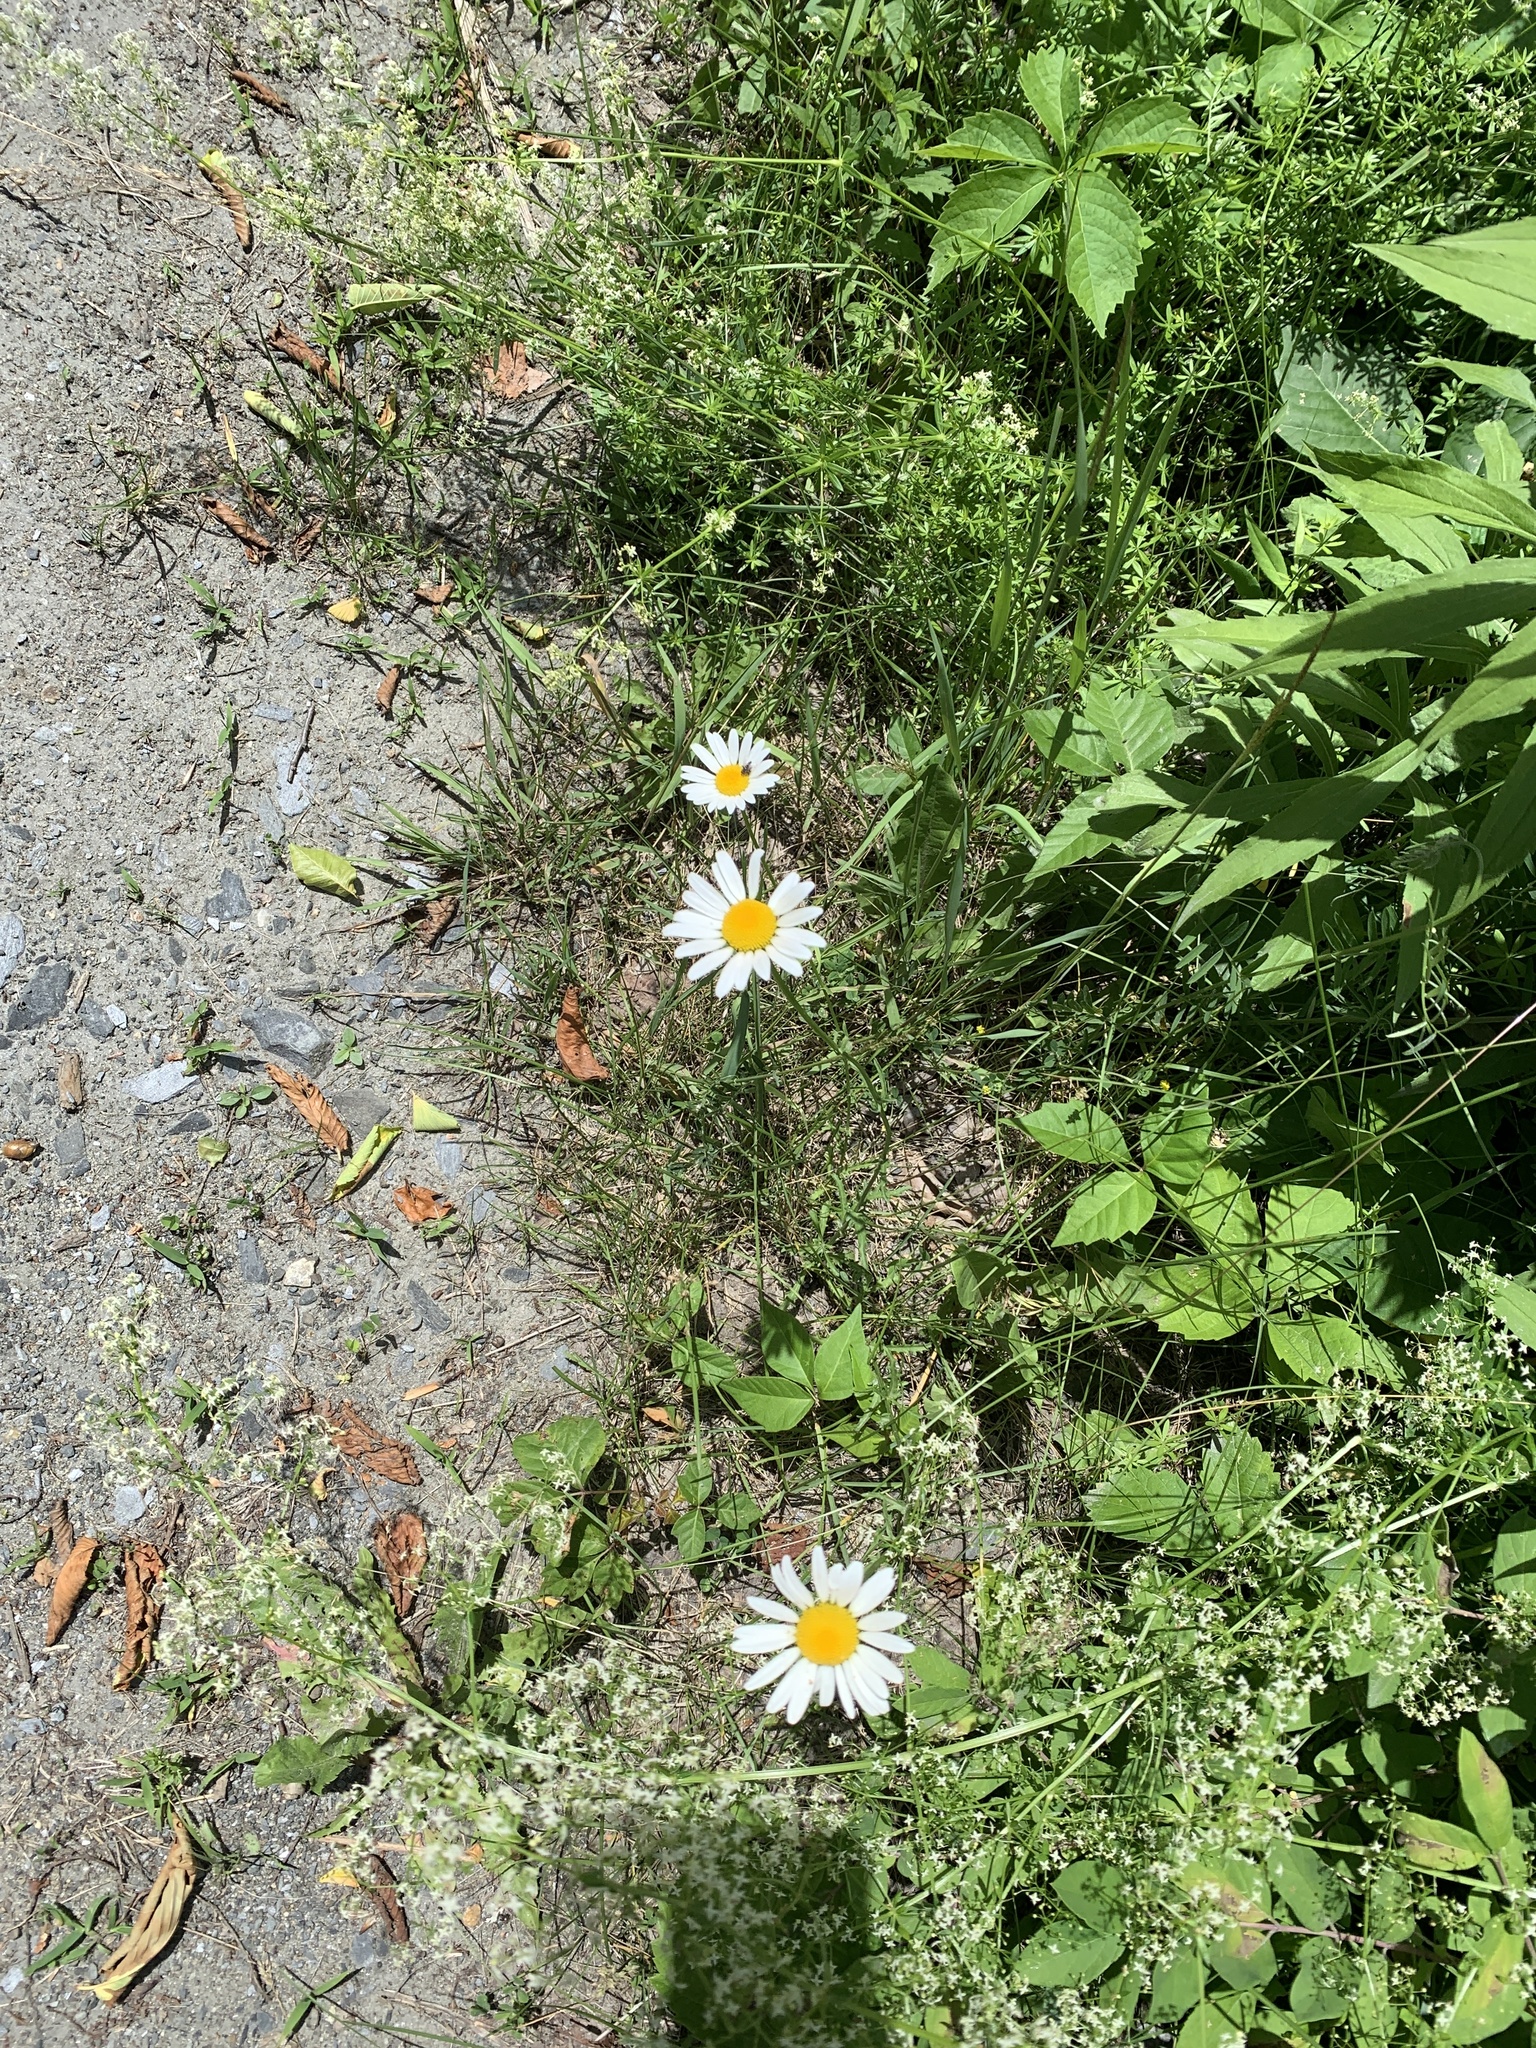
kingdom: Plantae
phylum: Tracheophyta
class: Magnoliopsida
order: Asterales
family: Asteraceae
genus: Leucanthemum
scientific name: Leucanthemum vulgare
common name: Oxeye daisy
